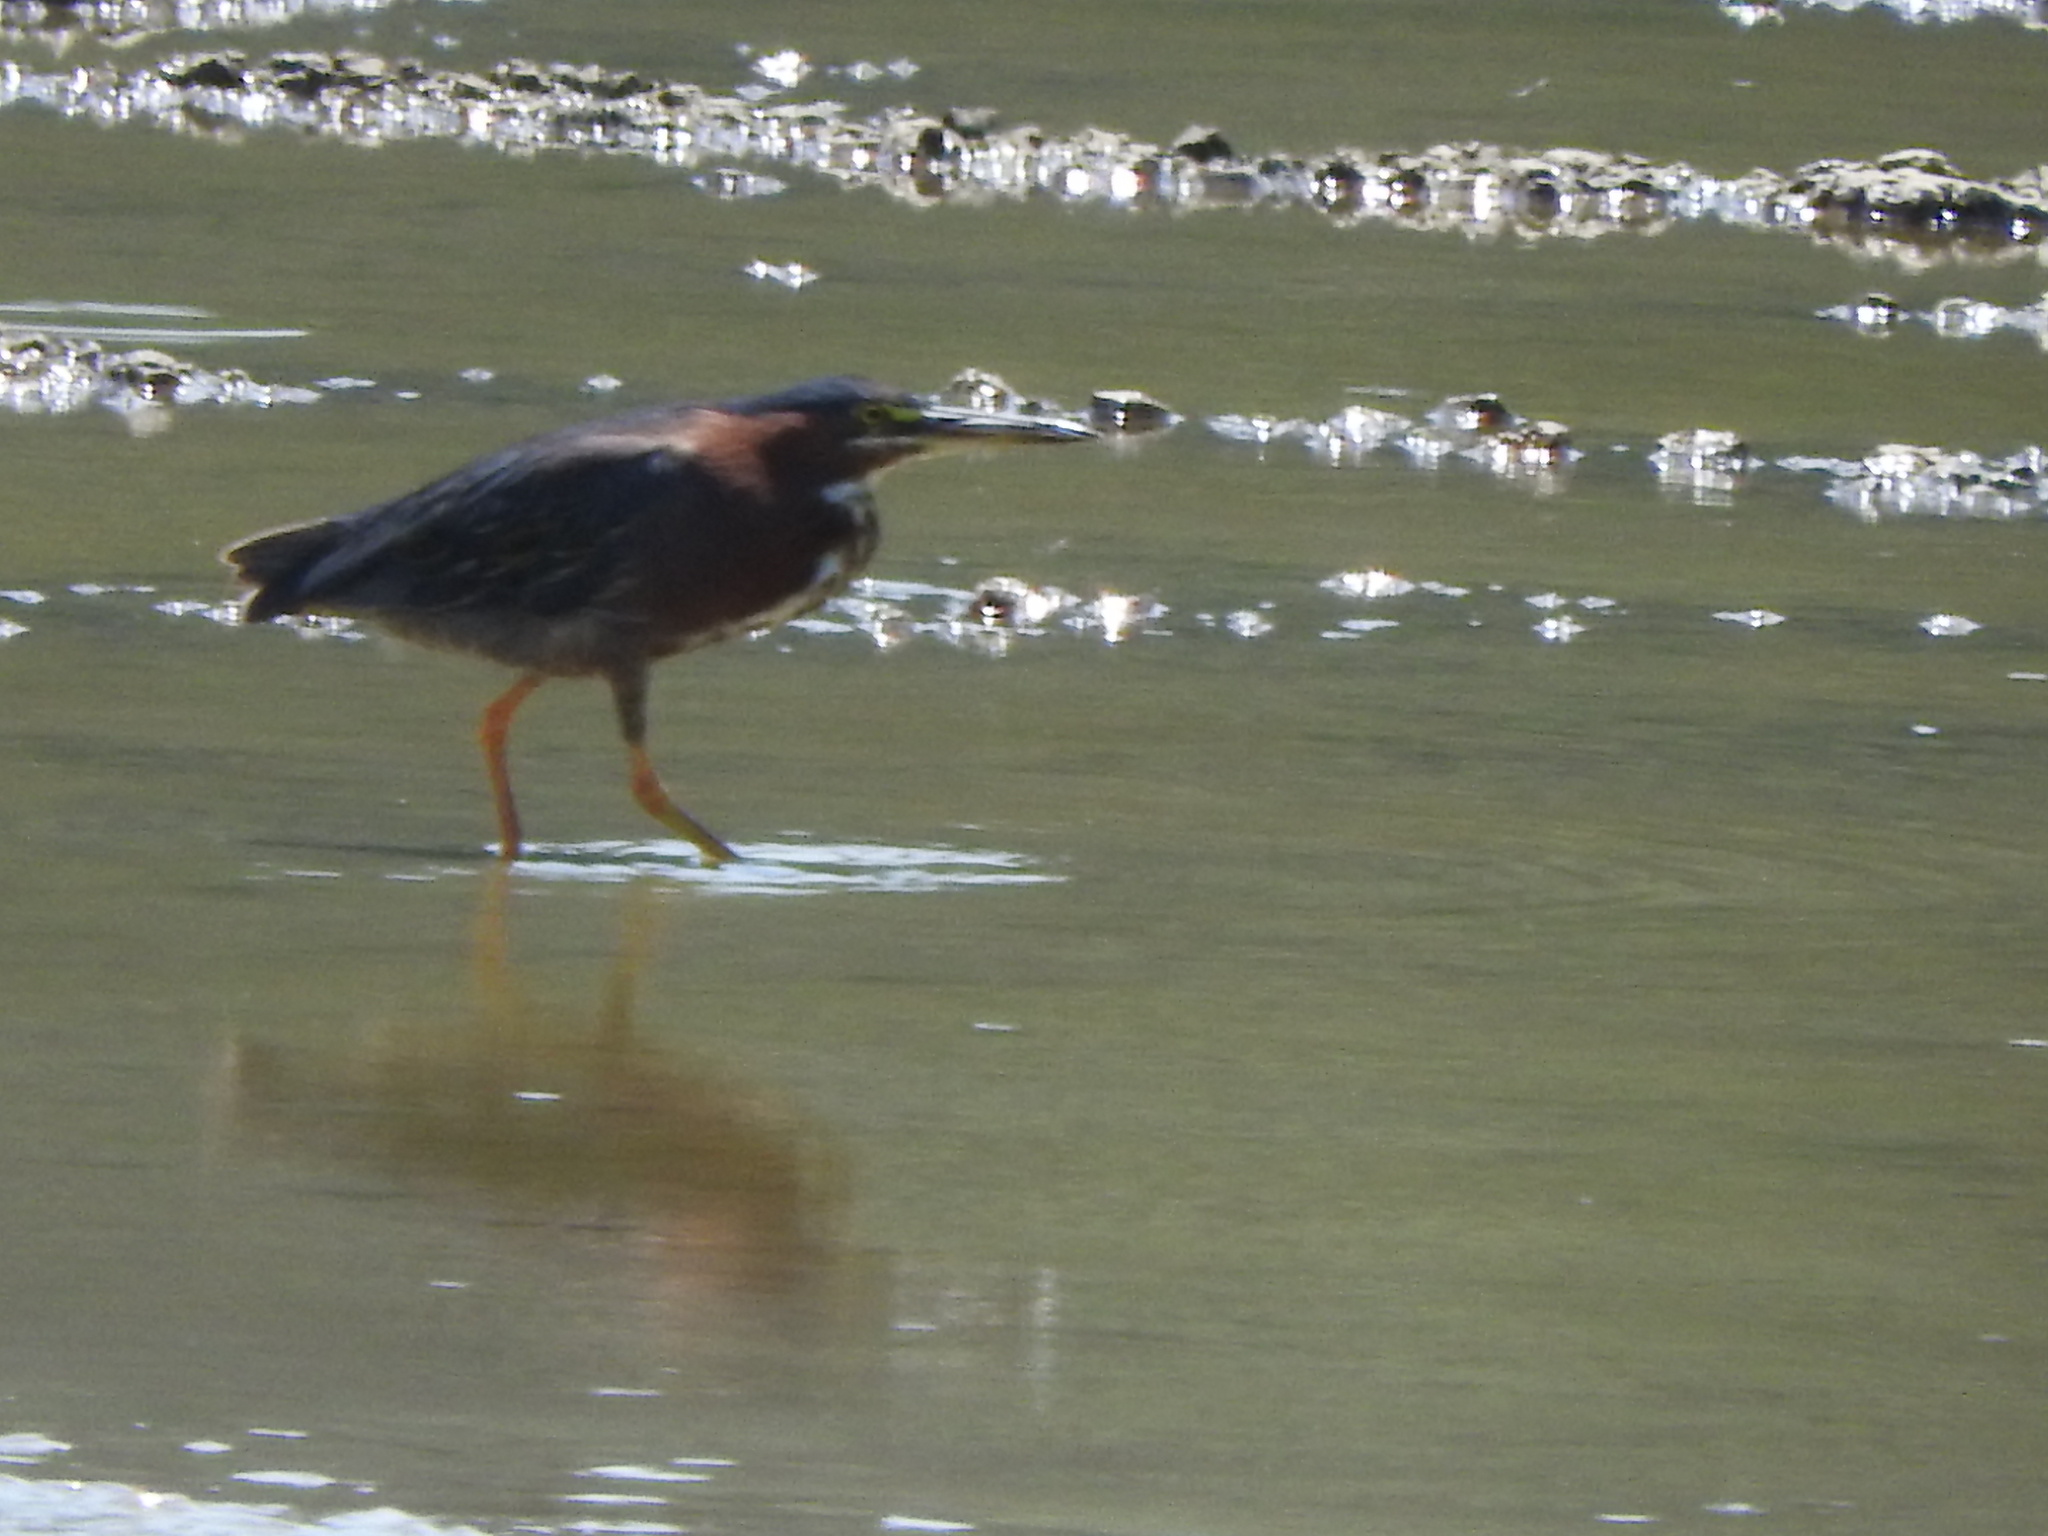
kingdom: Animalia
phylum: Chordata
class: Aves
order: Pelecaniformes
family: Ardeidae
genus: Butorides
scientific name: Butorides virescens
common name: Green heron
